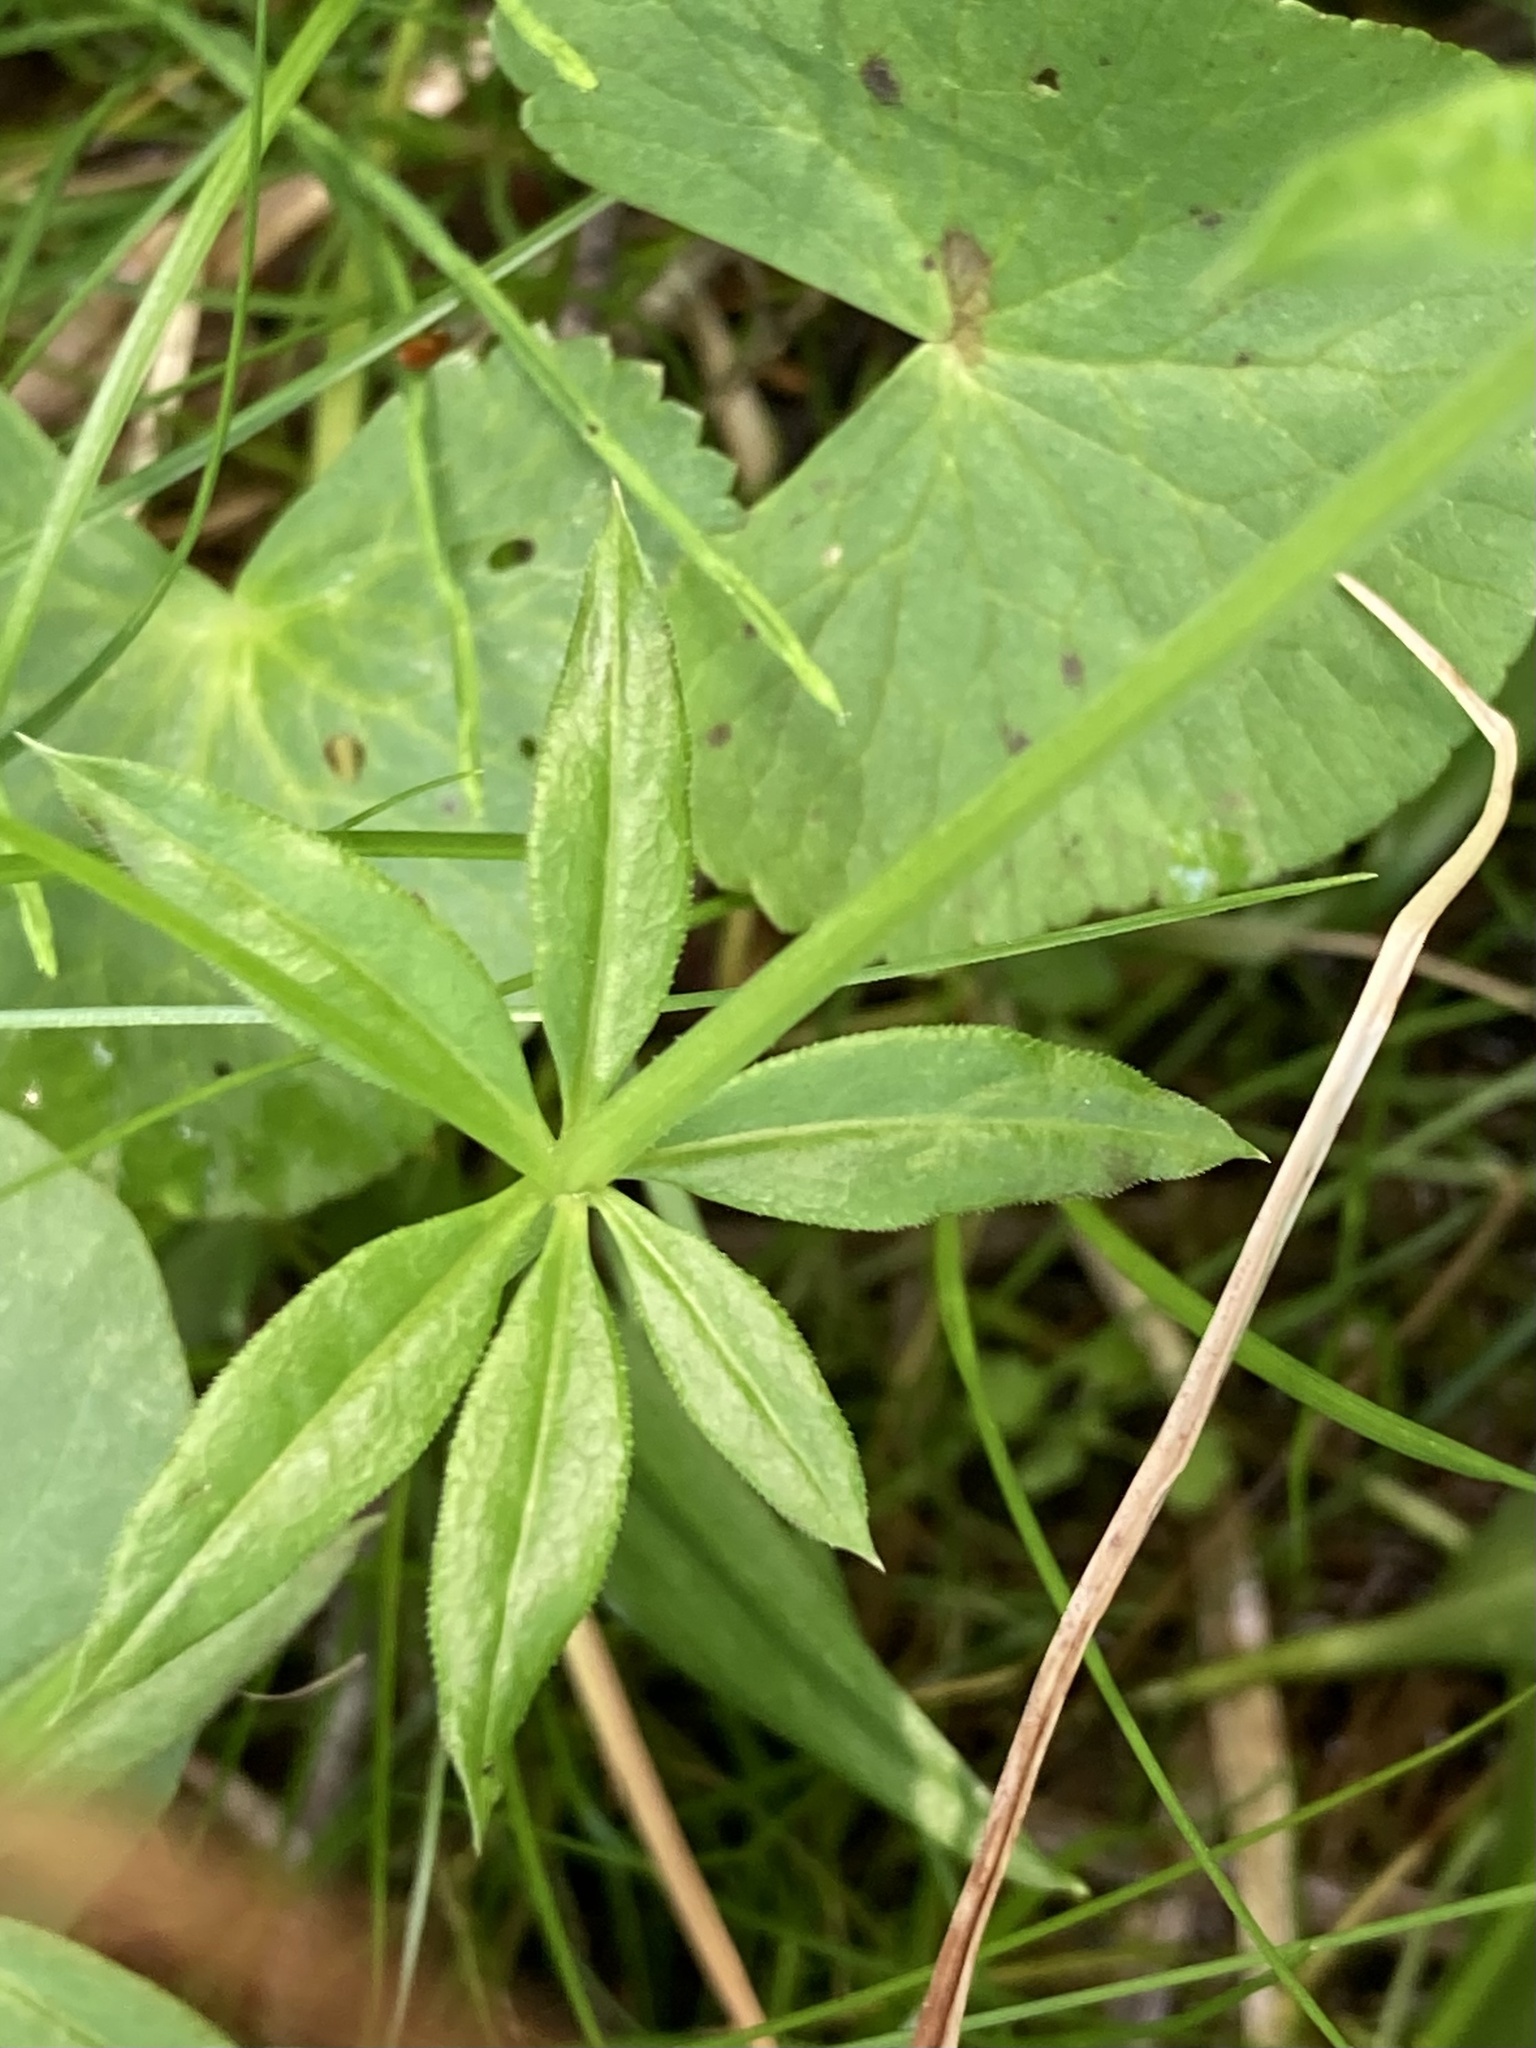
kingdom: Plantae
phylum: Tracheophyta
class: Magnoliopsida
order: Gentianales
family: Rubiaceae
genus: Galium
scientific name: Galium triflorum
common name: Fragrant bedstraw
